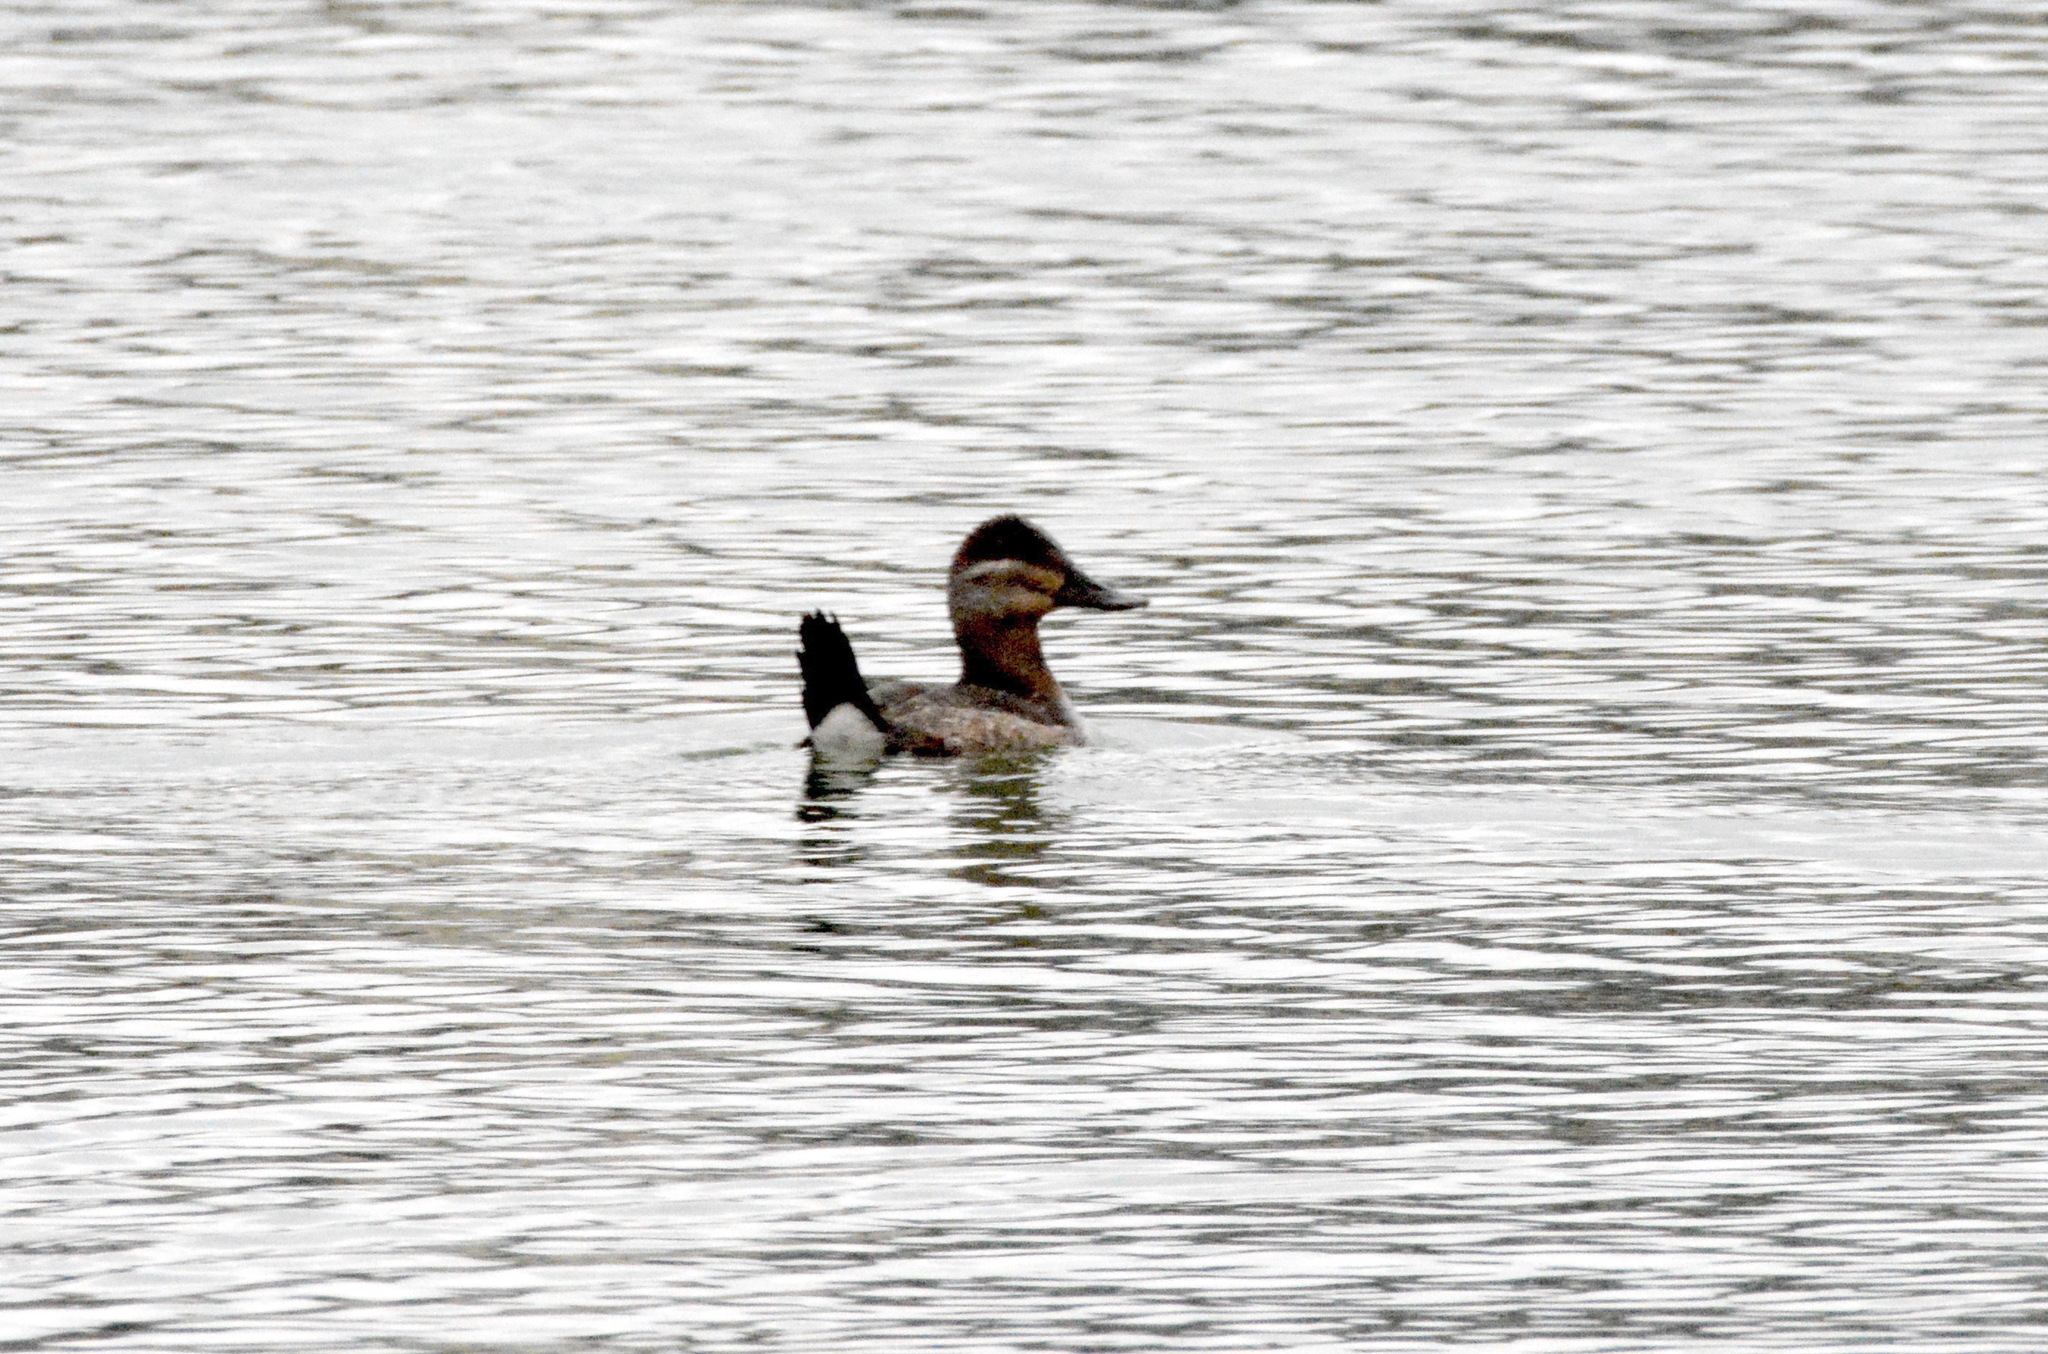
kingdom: Animalia
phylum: Chordata
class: Aves
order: Anseriformes
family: Anatidae
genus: Oxyura
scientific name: Oxyura jamaicensis
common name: Ruddy duck
